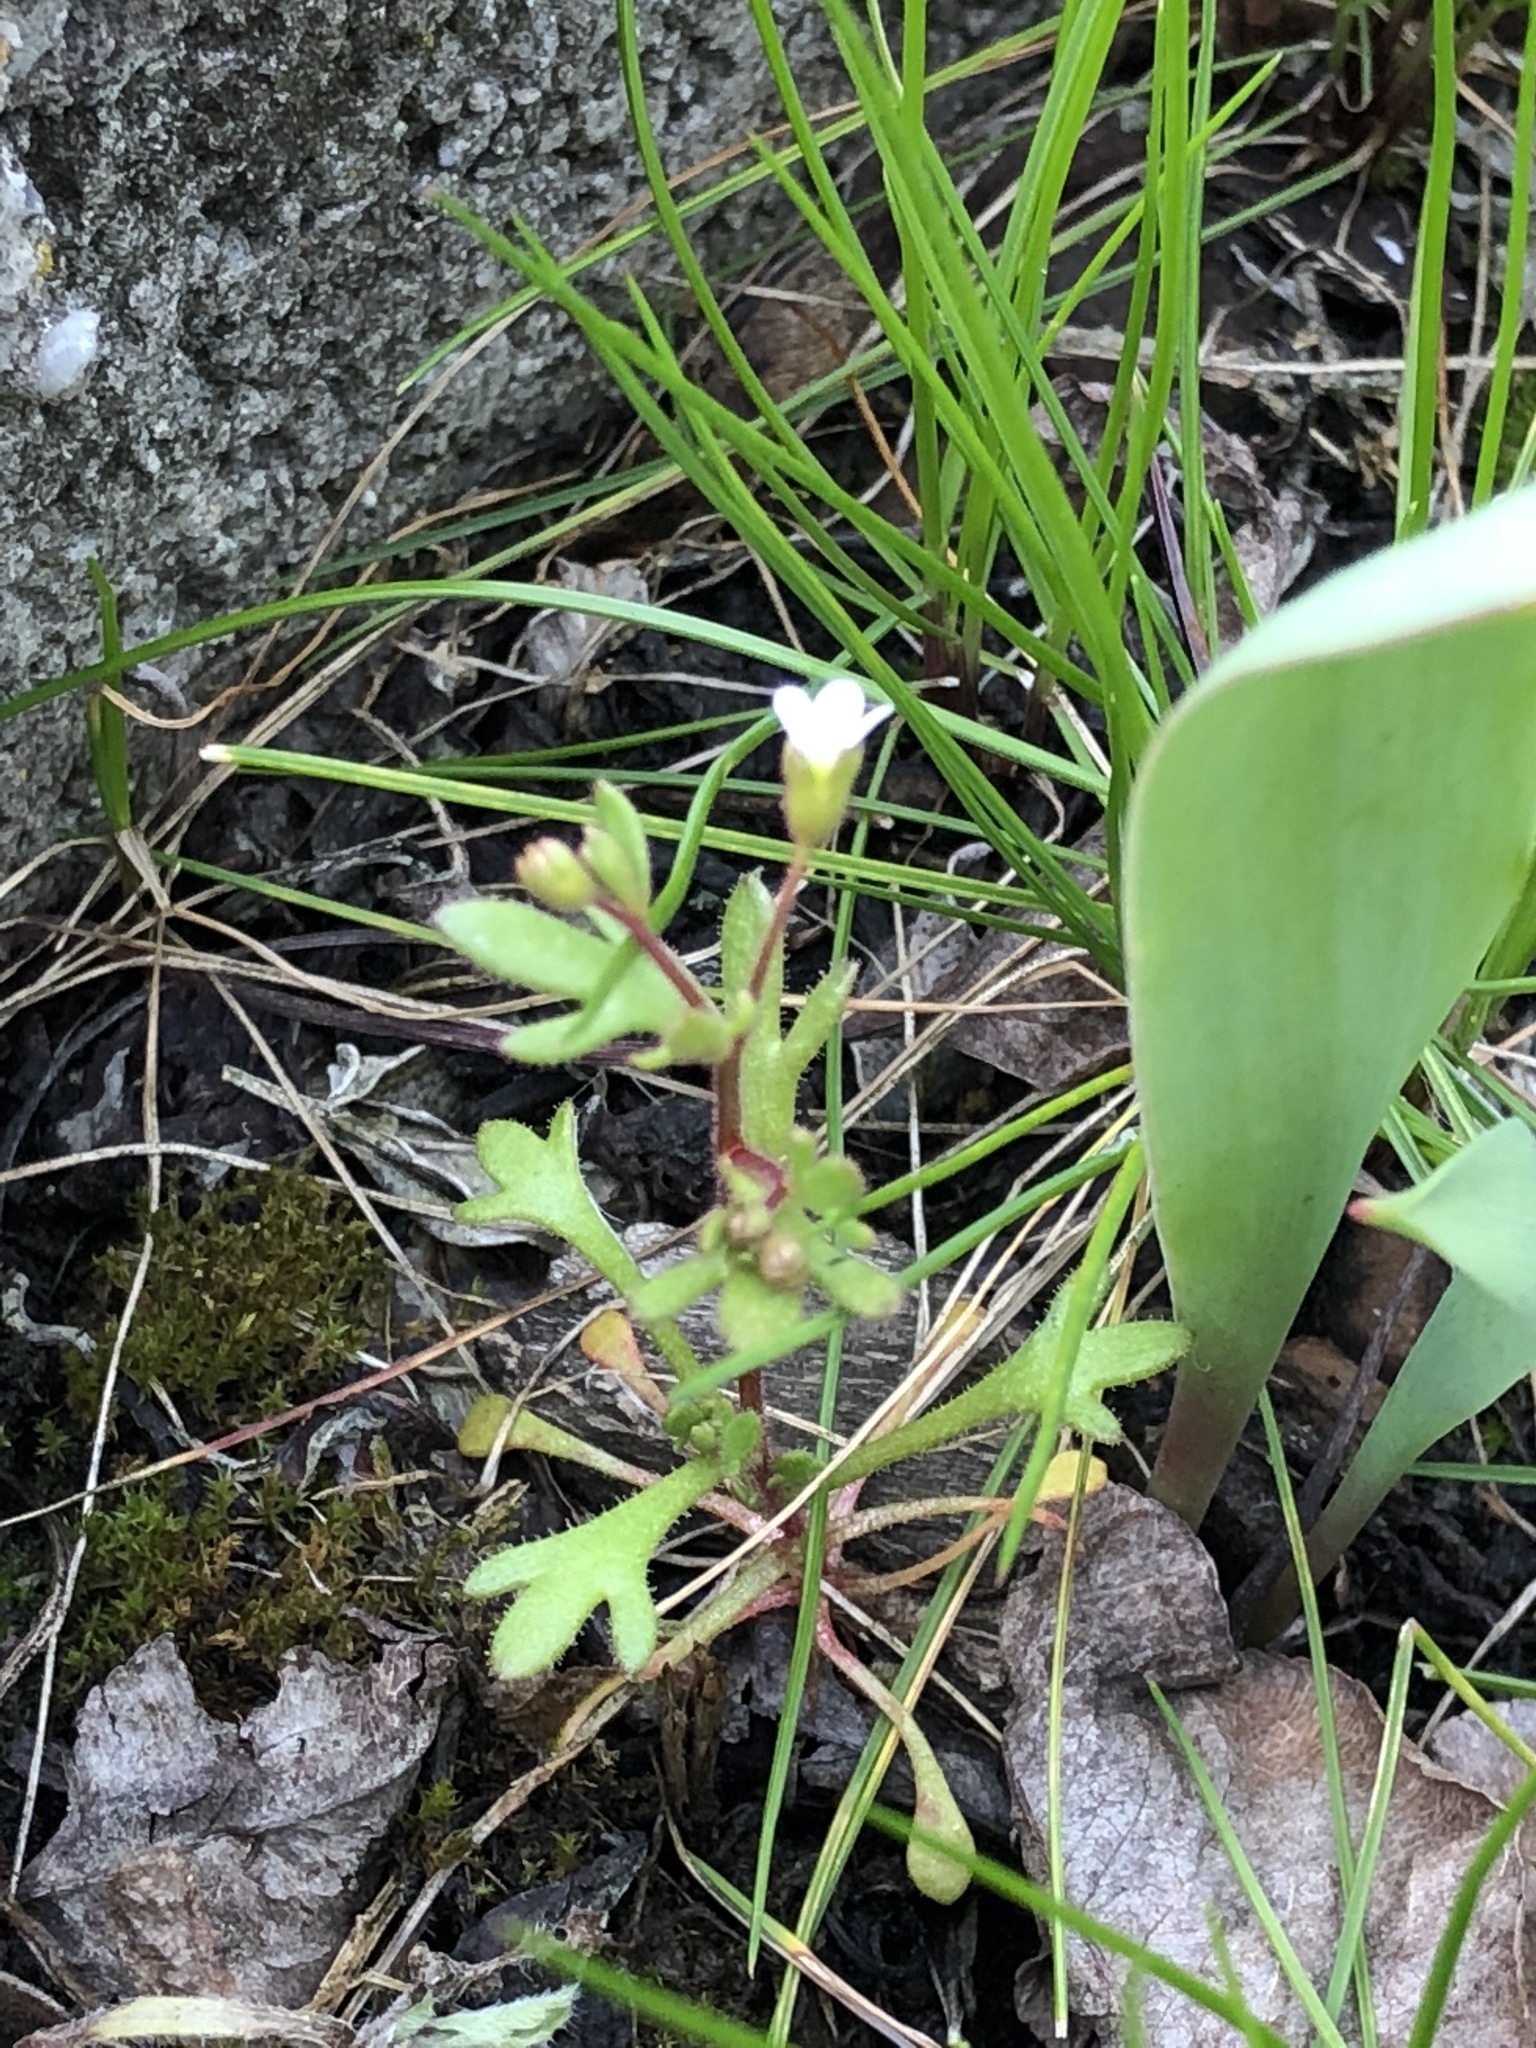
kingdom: Plantae
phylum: Tracheophyta
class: Magnoliopsida
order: Saxifragales
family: Saxifragaceae
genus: Saxifraga
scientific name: Saxifraga tridactylites
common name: Rue-leaved saxifrage
